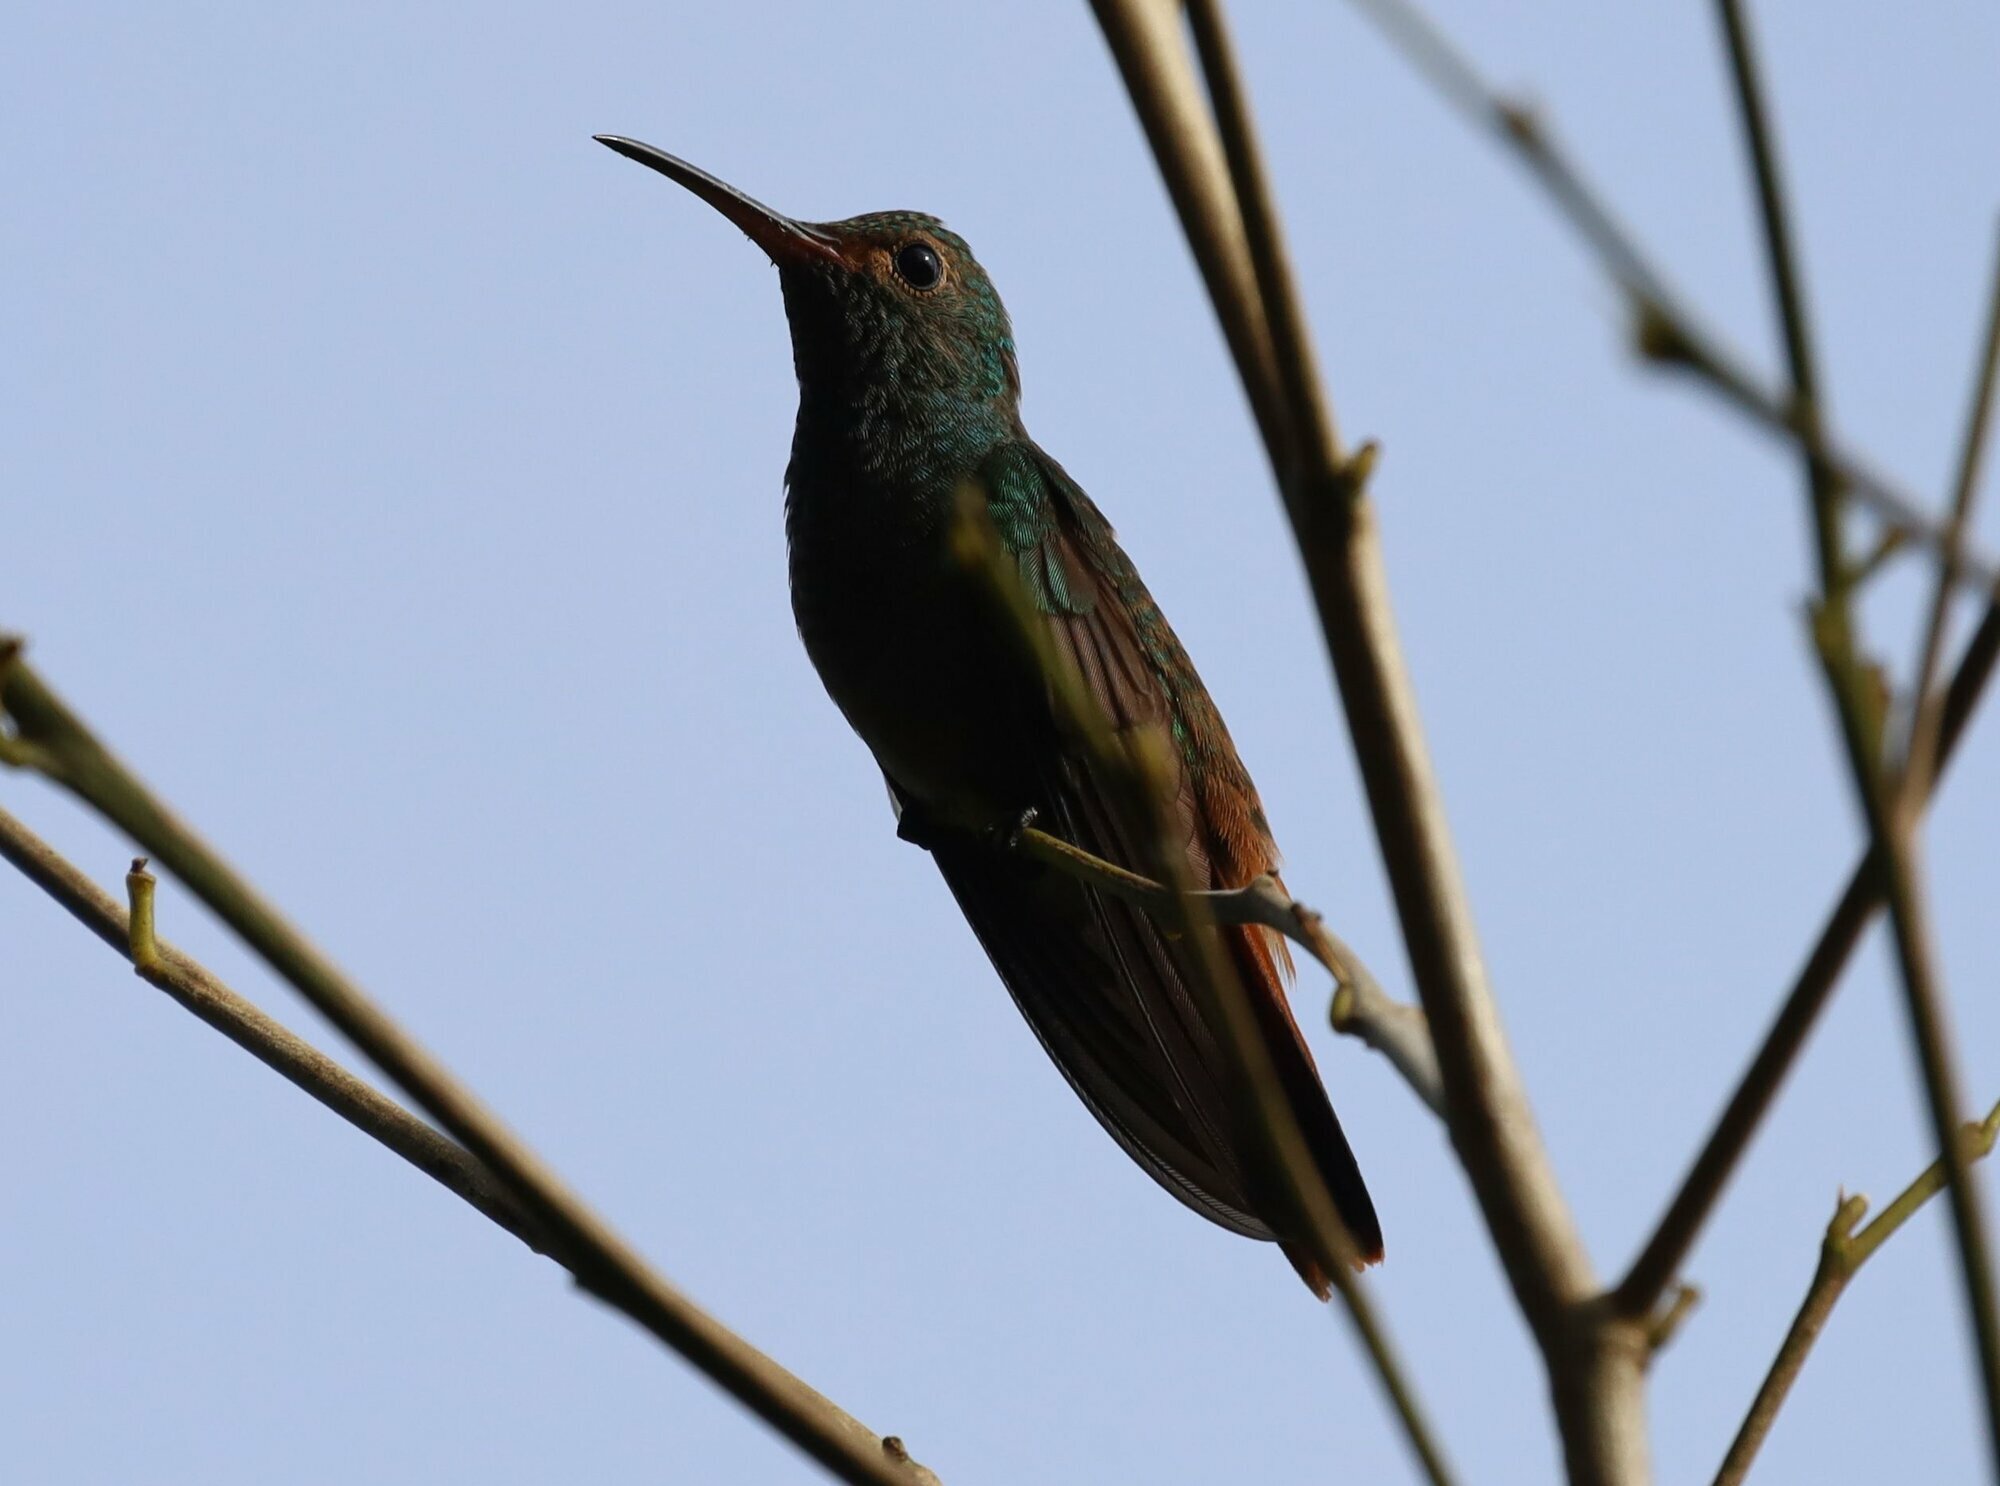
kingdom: Animalia
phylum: Chordata
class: Aves
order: Apodiformes
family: Trochilidae
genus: Amazilia
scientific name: Amazilia tzacatl
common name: Rufous-tailed hummingbird
